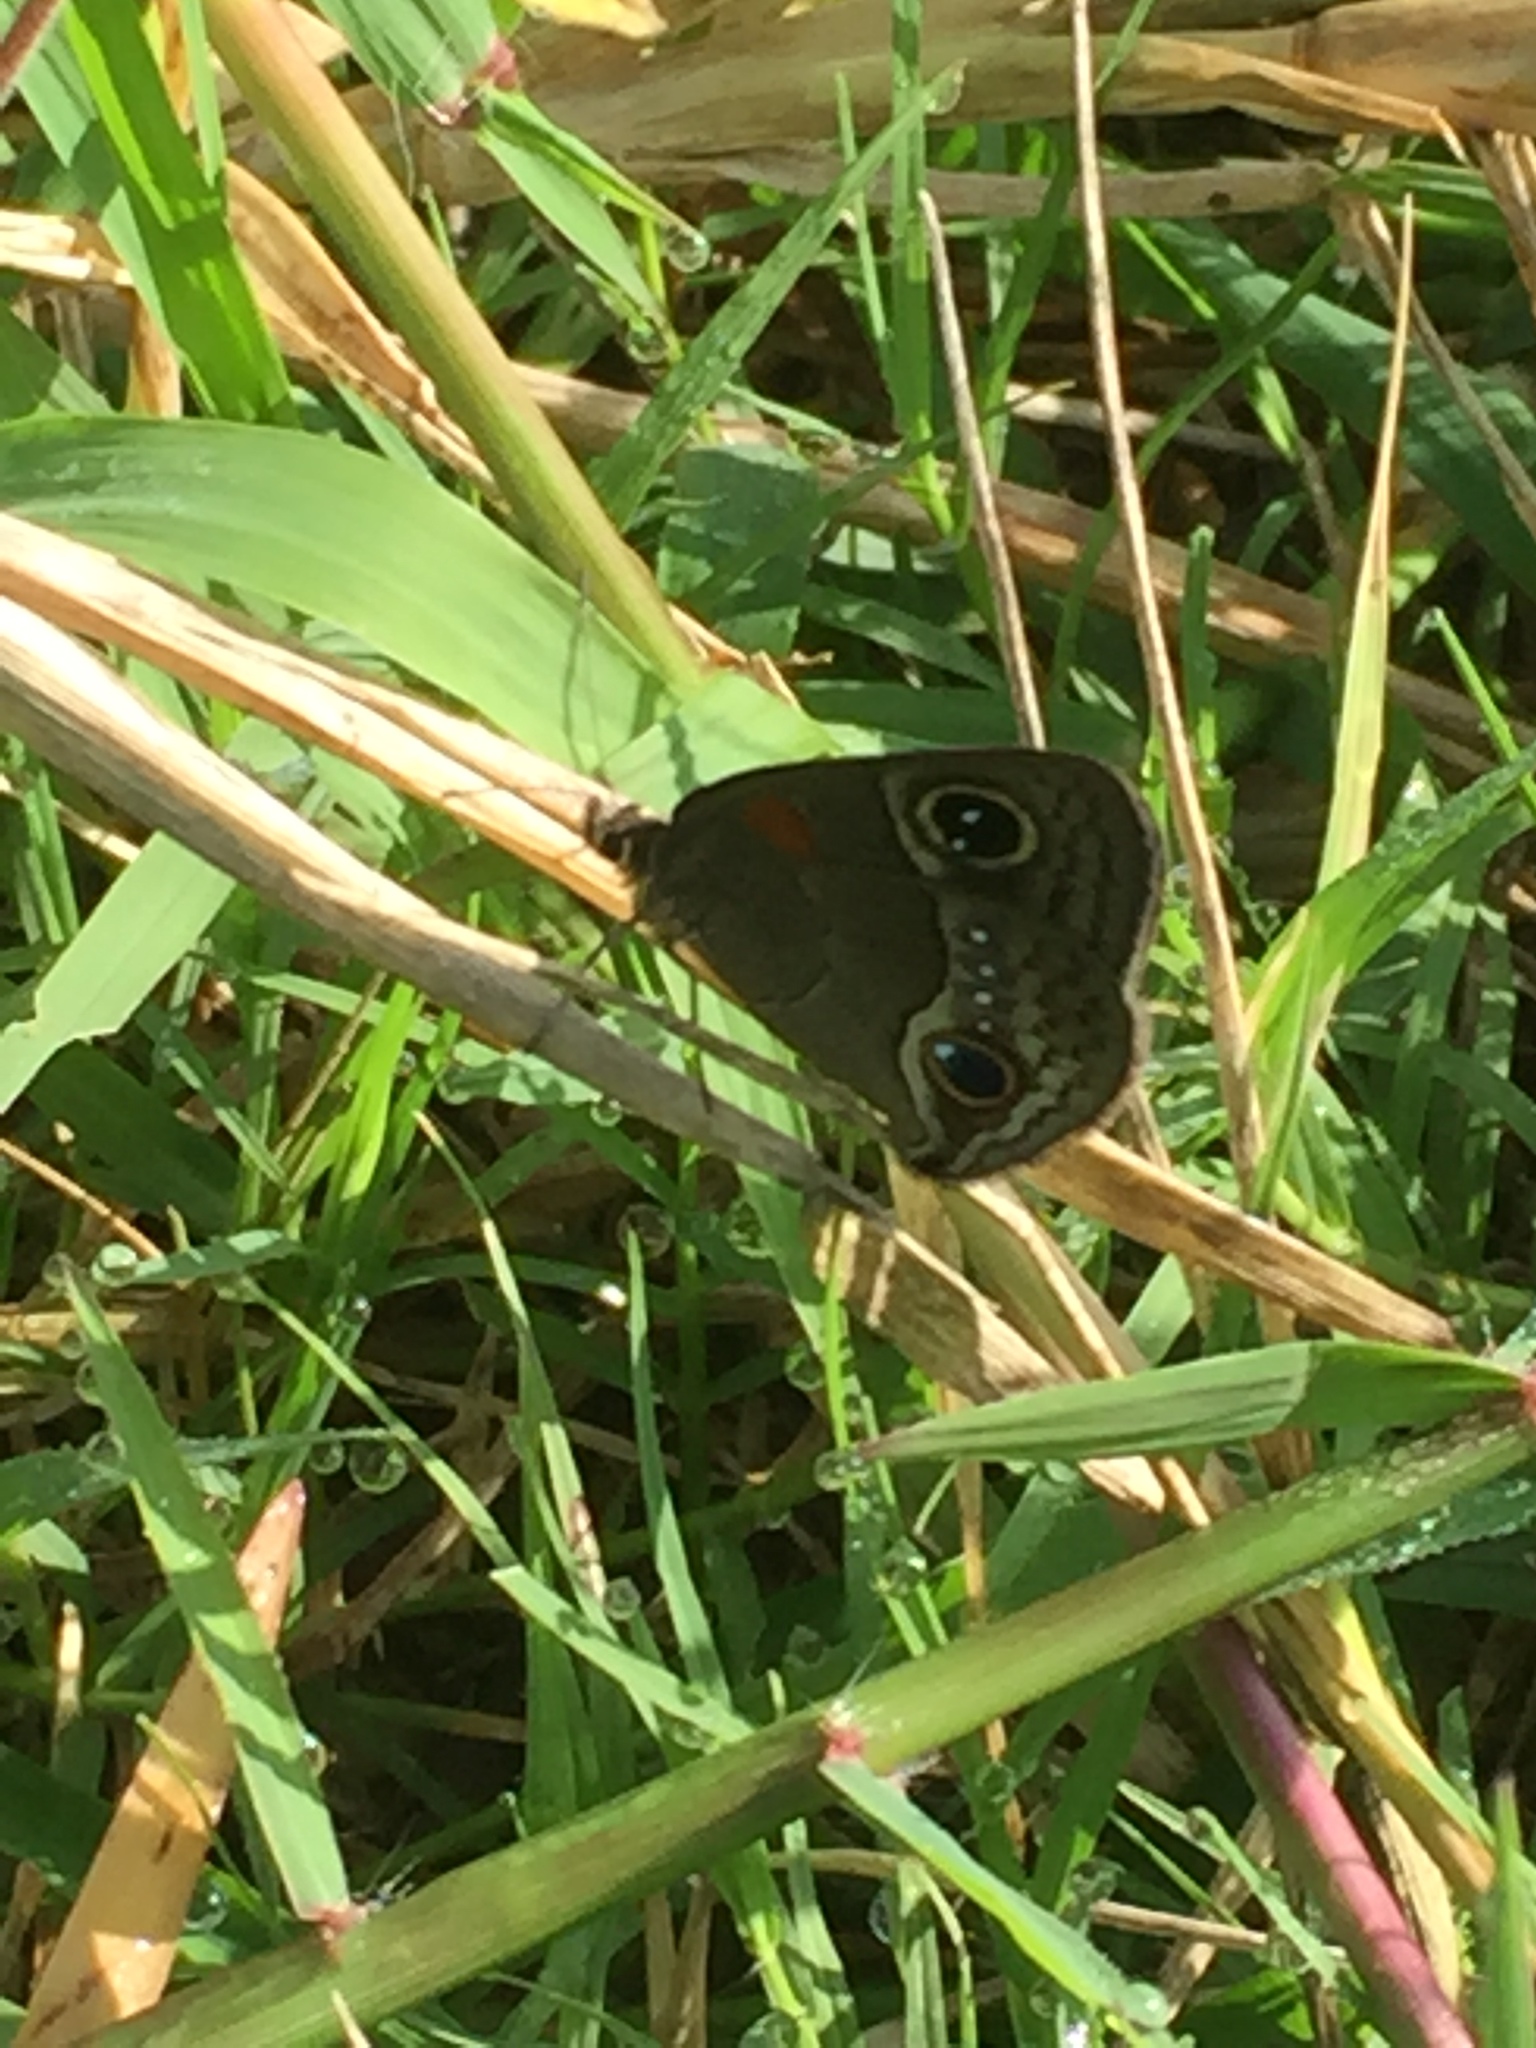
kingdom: Animalia
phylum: Arthropoda
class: Insecta
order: Lepidoptera
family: Nymphalidae
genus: Calisto
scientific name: Calisto herophile
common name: Cuban calisto
